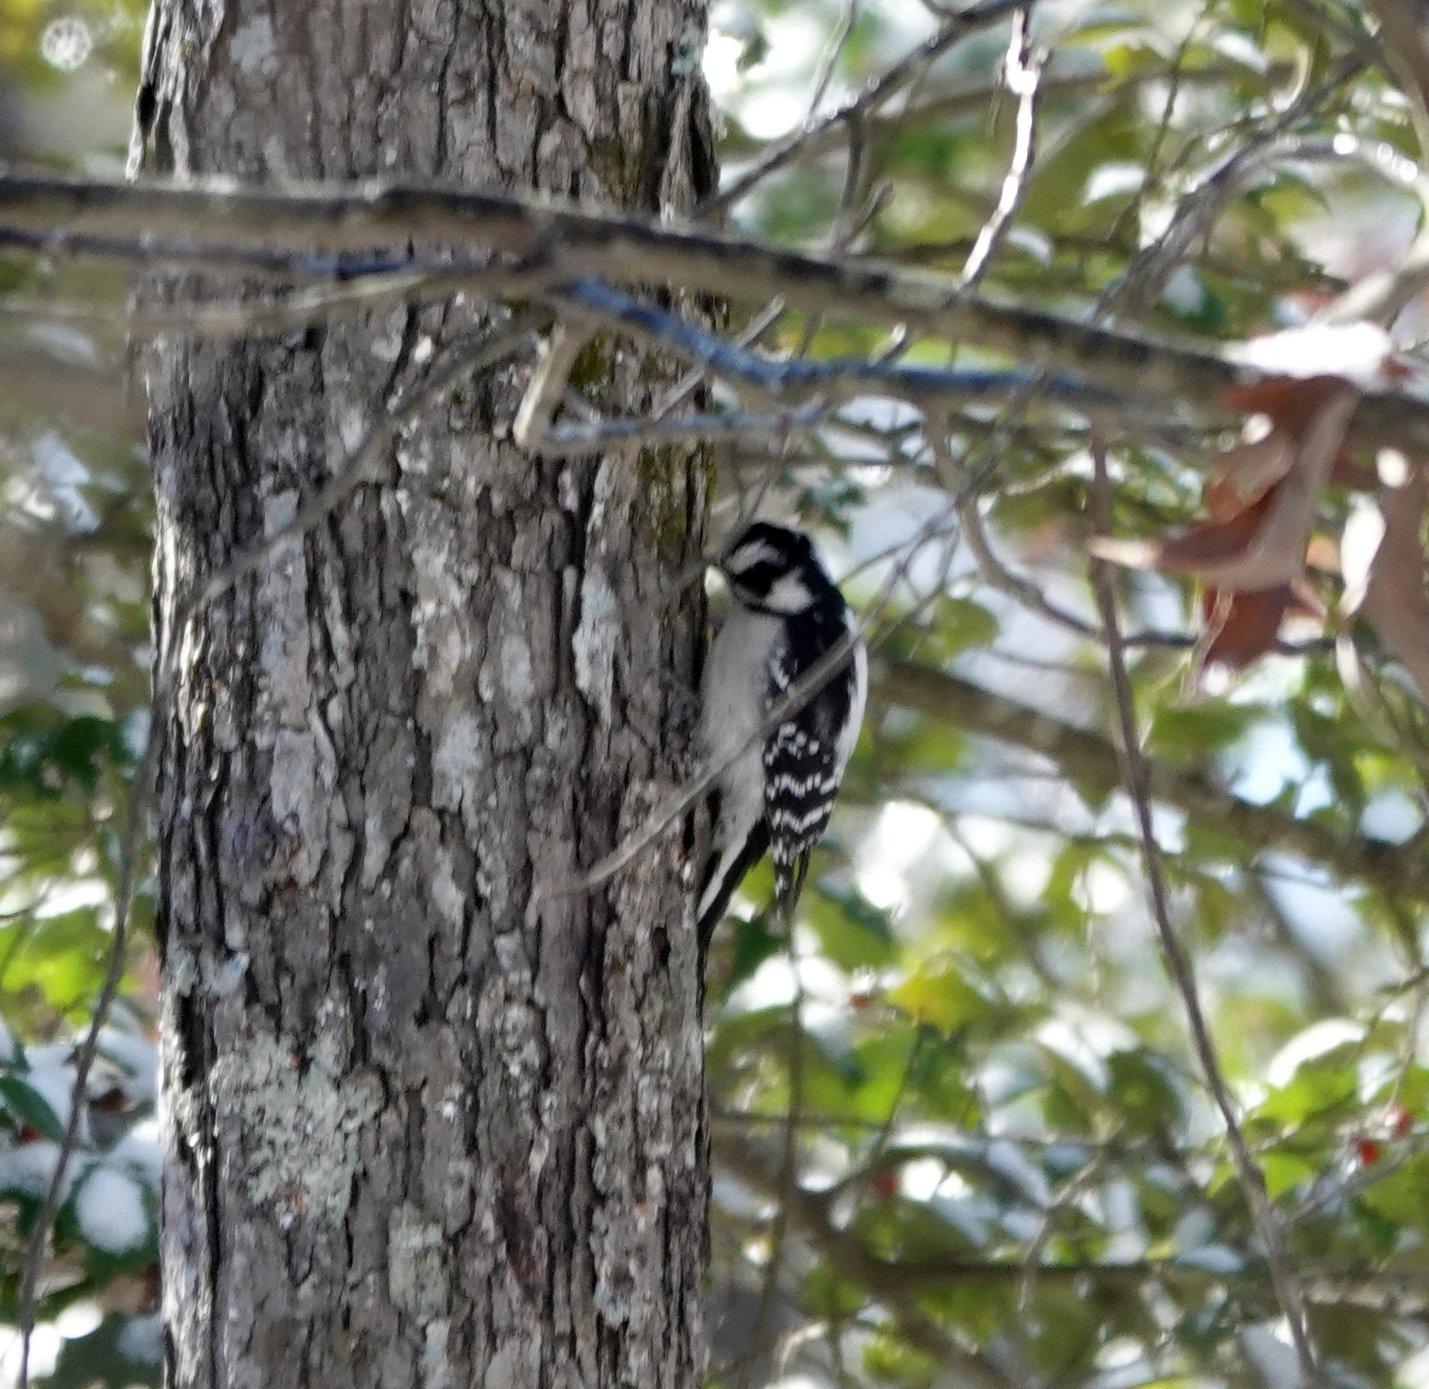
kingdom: Animalia
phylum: Chordata
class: Aves
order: Piciformes
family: Picidae
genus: Dryobates
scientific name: Dryobates pubescens
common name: Downy woodpecker
